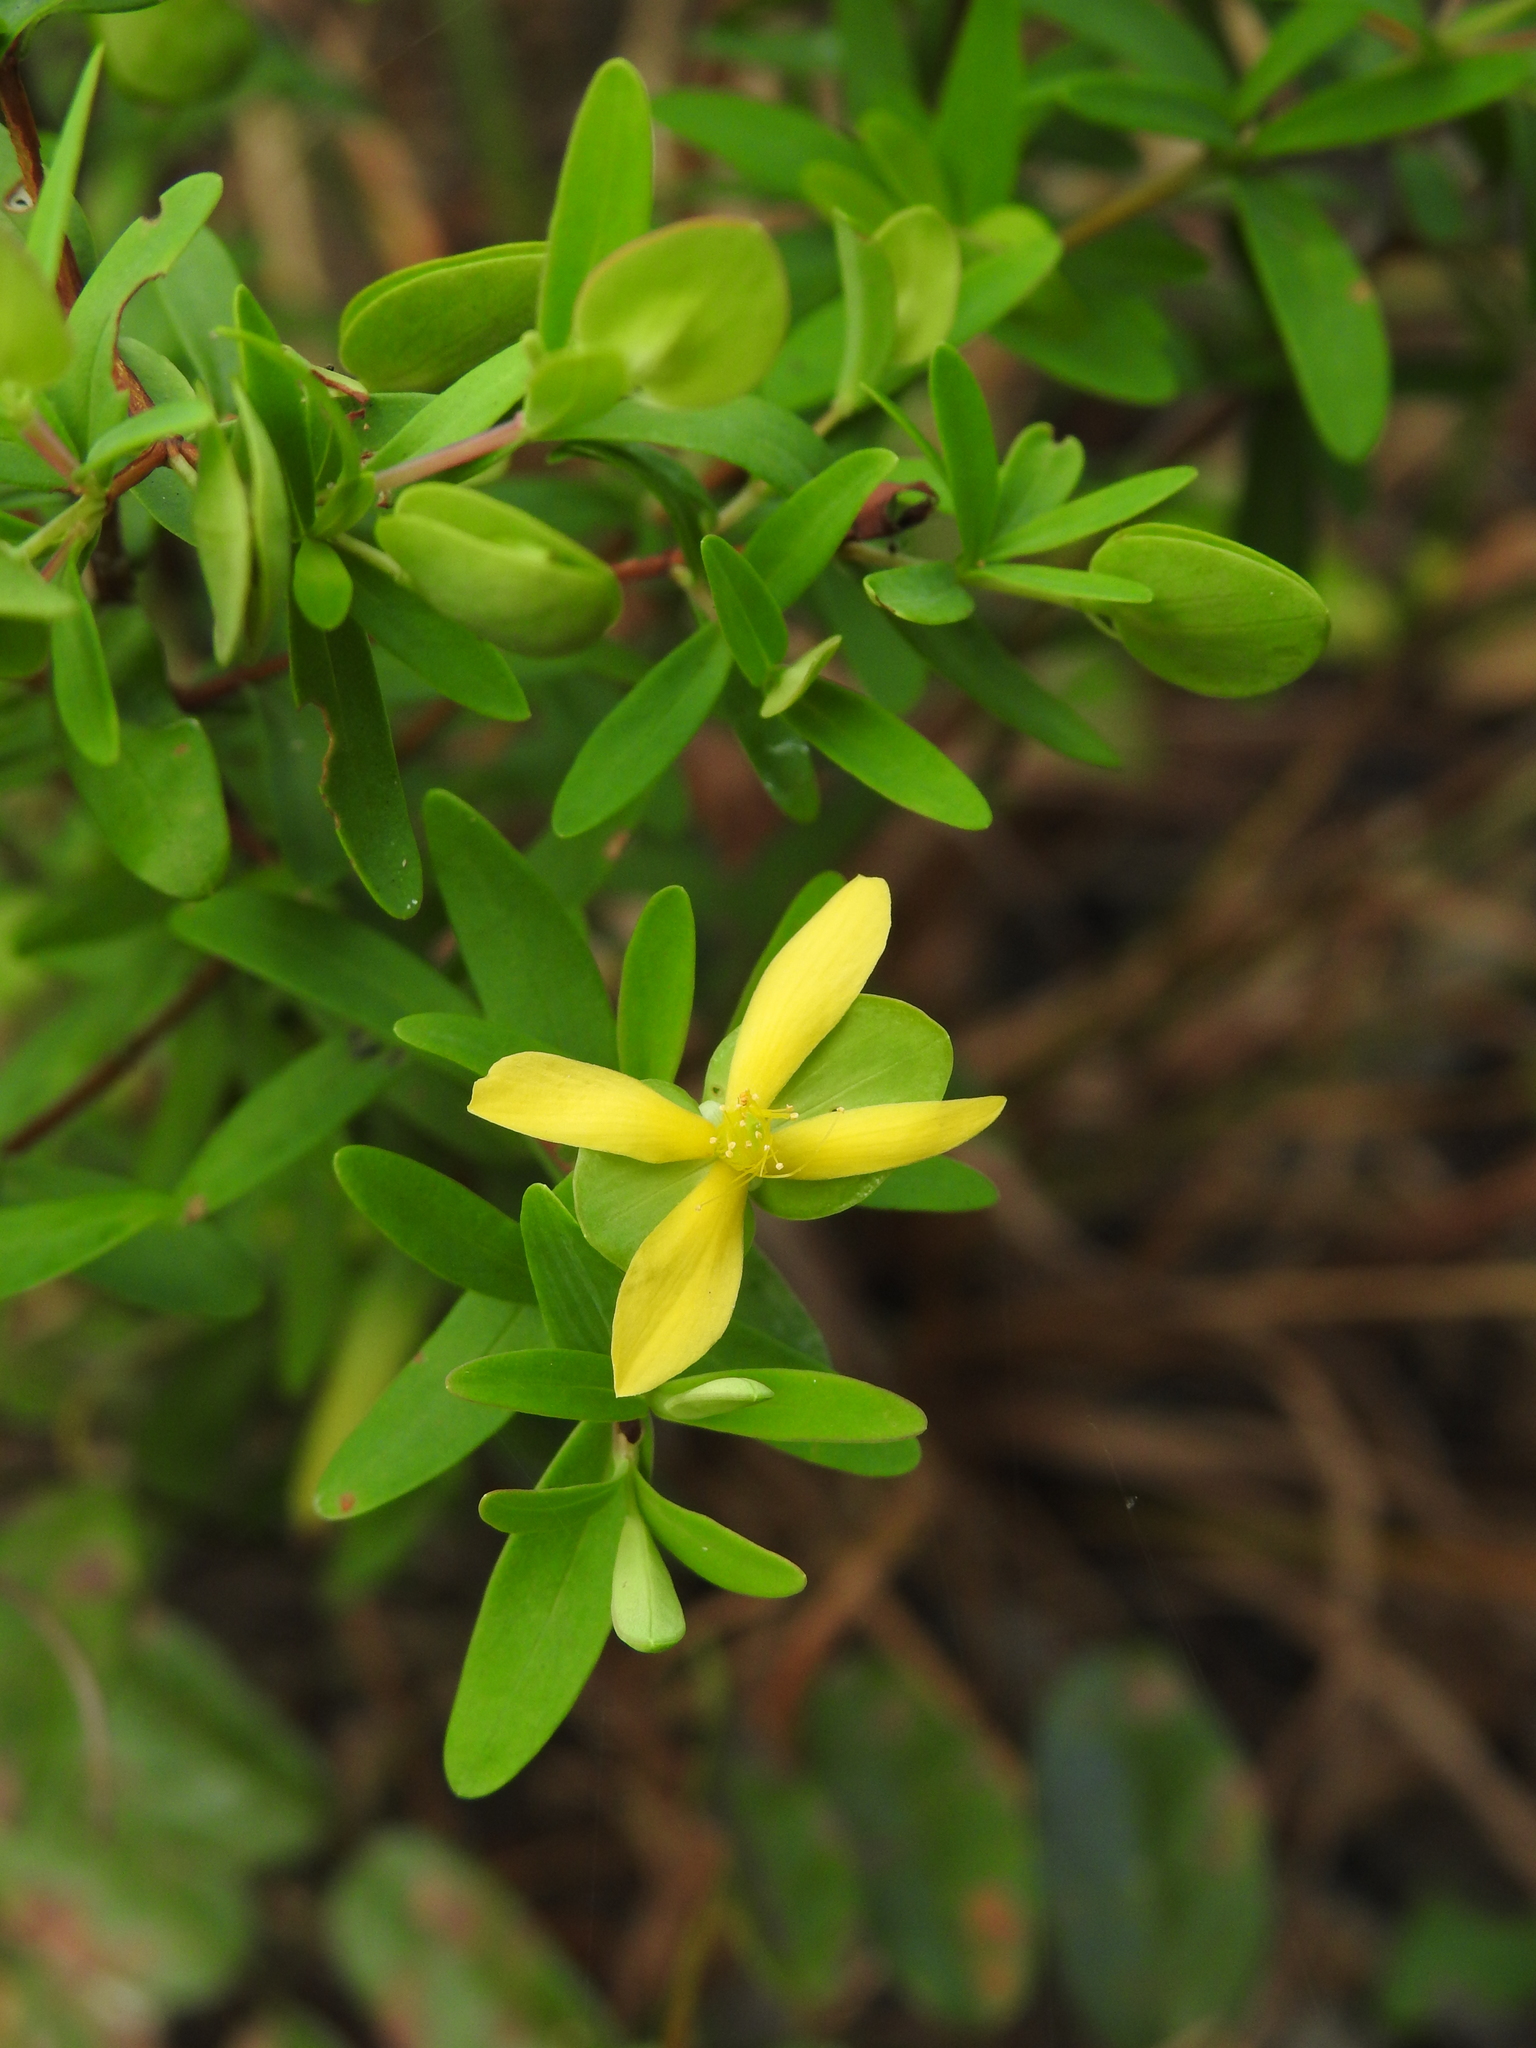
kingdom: Plantae
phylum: Tracheophyta
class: Magnoliopsida
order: Malpighiales
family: Hypericaceae
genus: Hypericum
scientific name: Hypericum hypericoides
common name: St. andrew's cross
